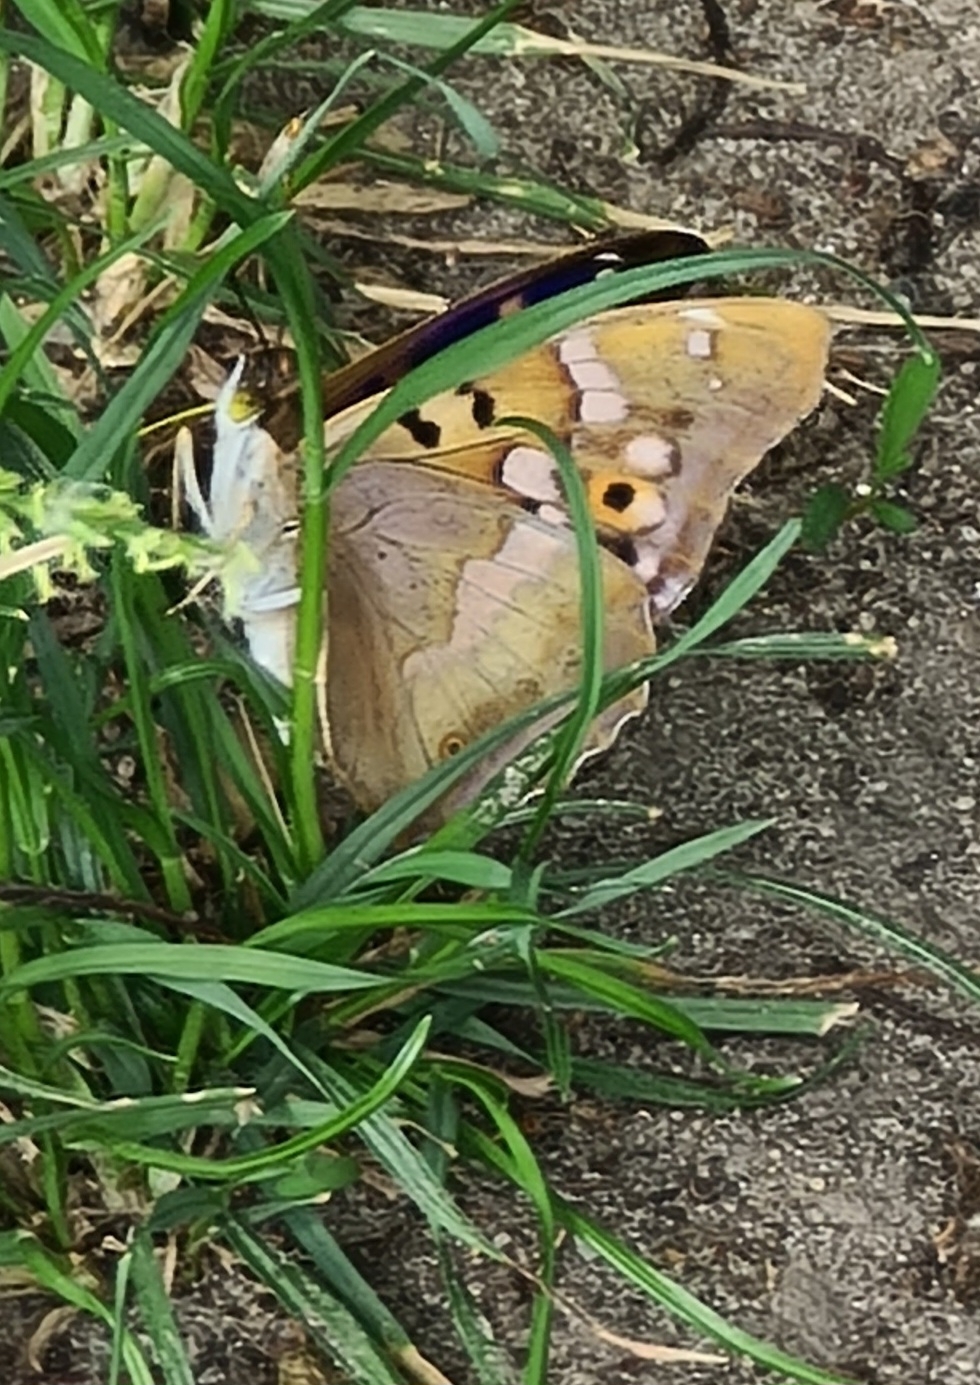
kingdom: Animalia
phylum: Arthropoda
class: Insecta
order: Lepidoptera
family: Nymphalidae
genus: Apatura
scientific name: Apatura ilia
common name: Lesser purple emperor
